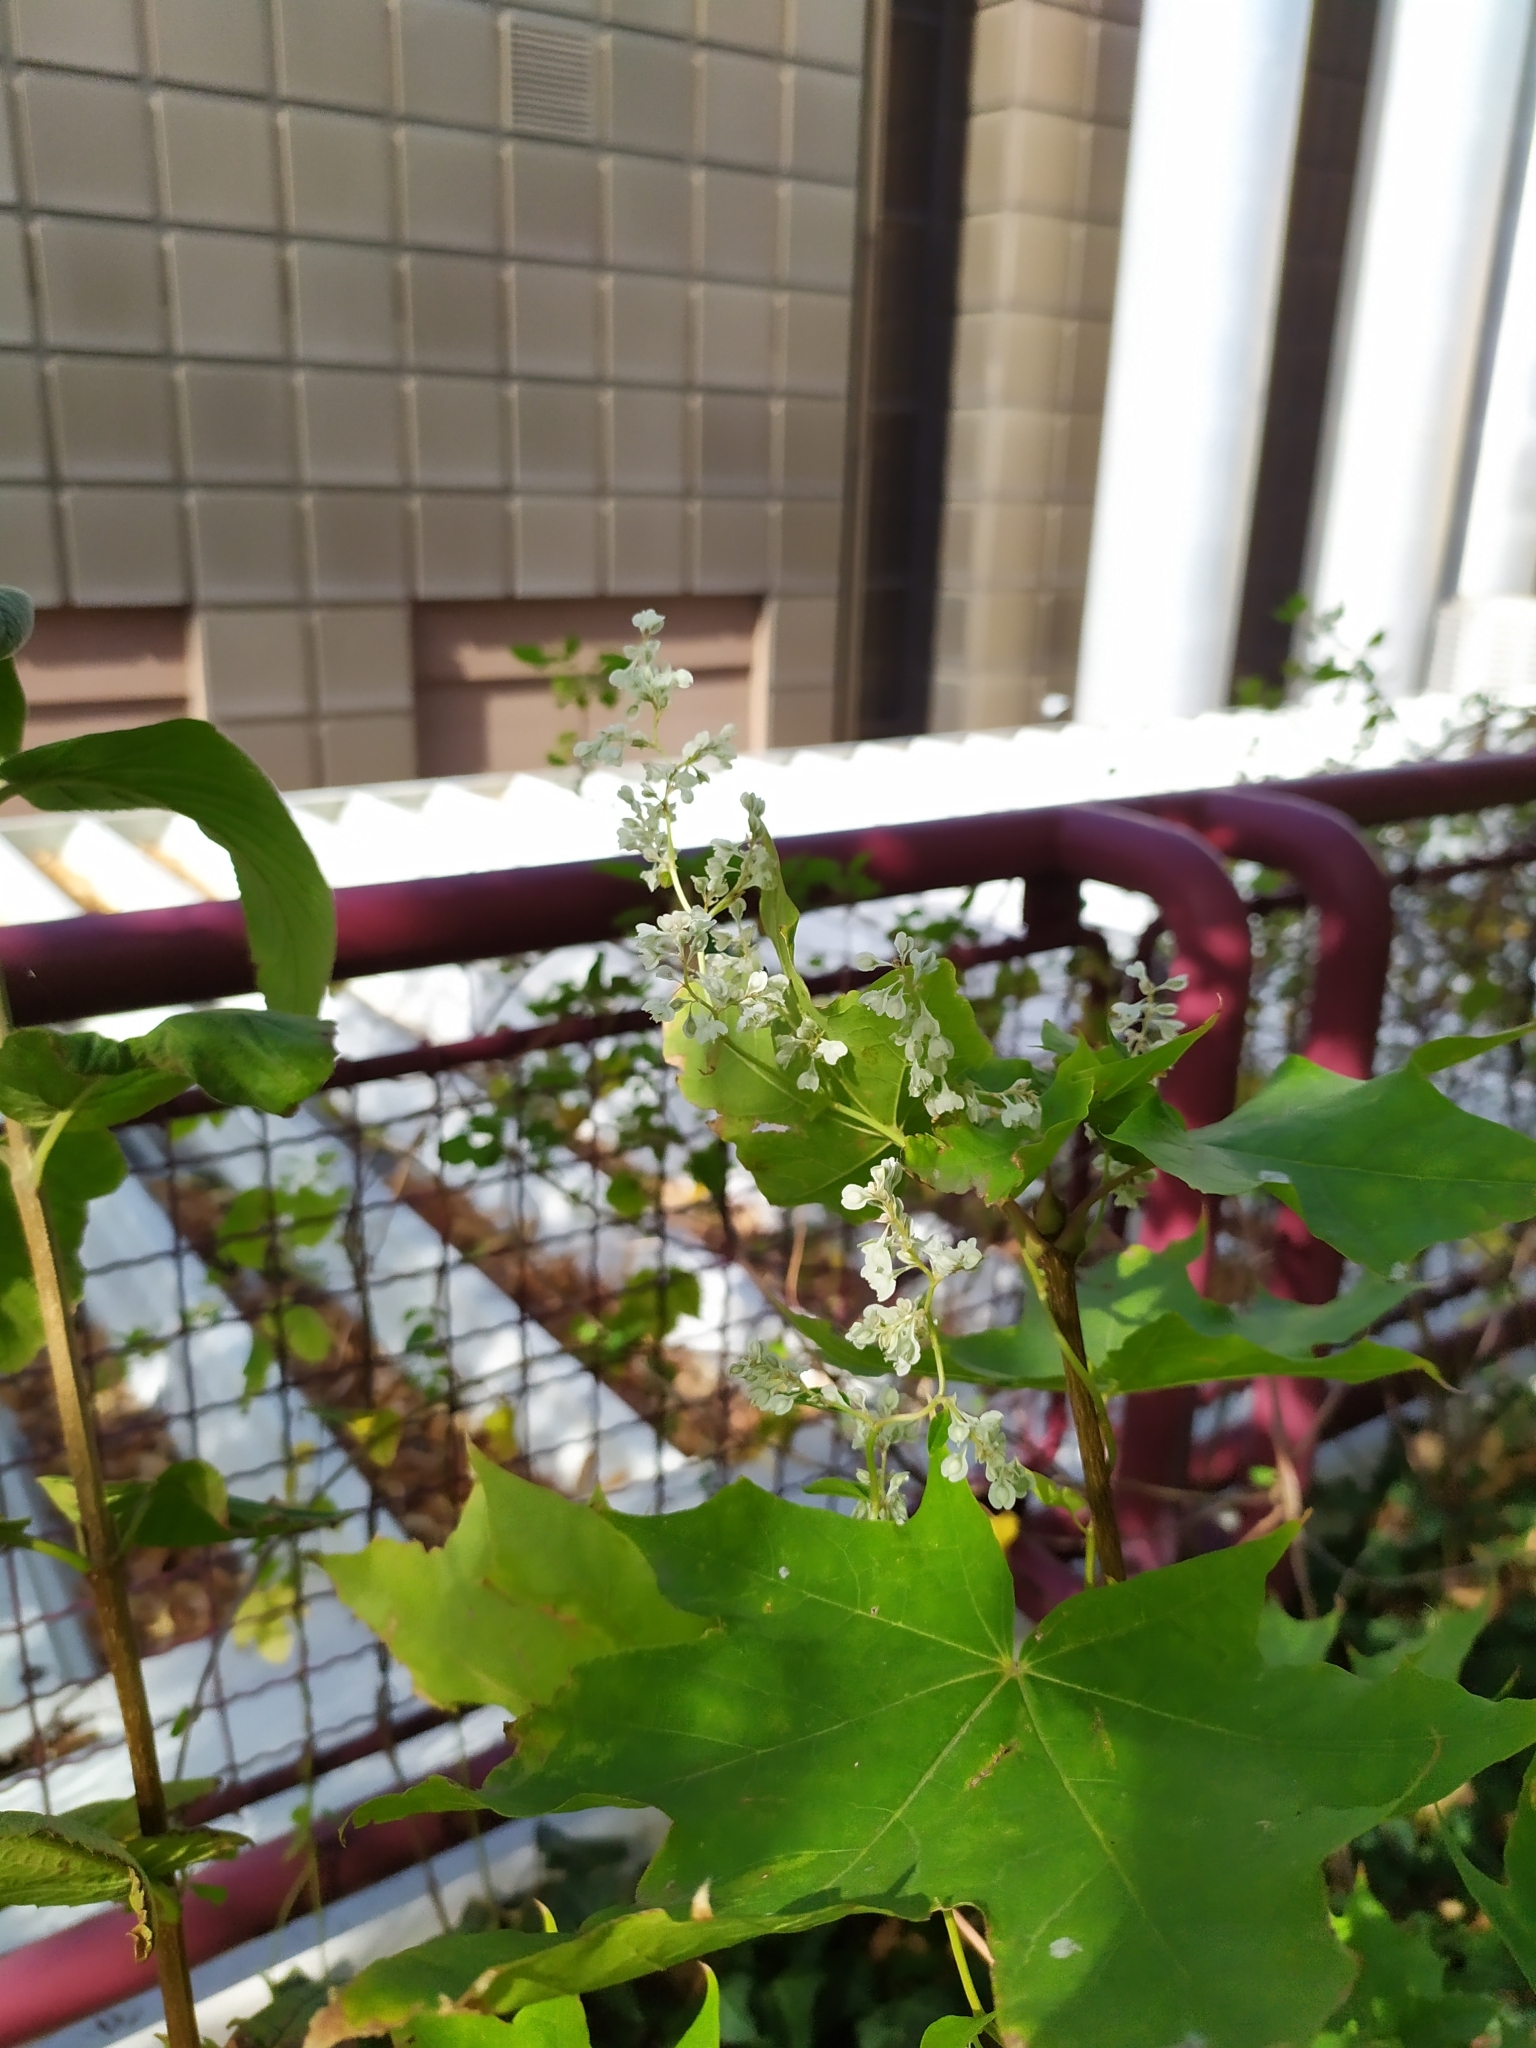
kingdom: Plantae
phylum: Tracheophyta
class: Magnoliopsida
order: Caryophyllales
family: Polygonaceae
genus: Fallopia
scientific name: Fallopia baldschuanica
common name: Russian-vine
